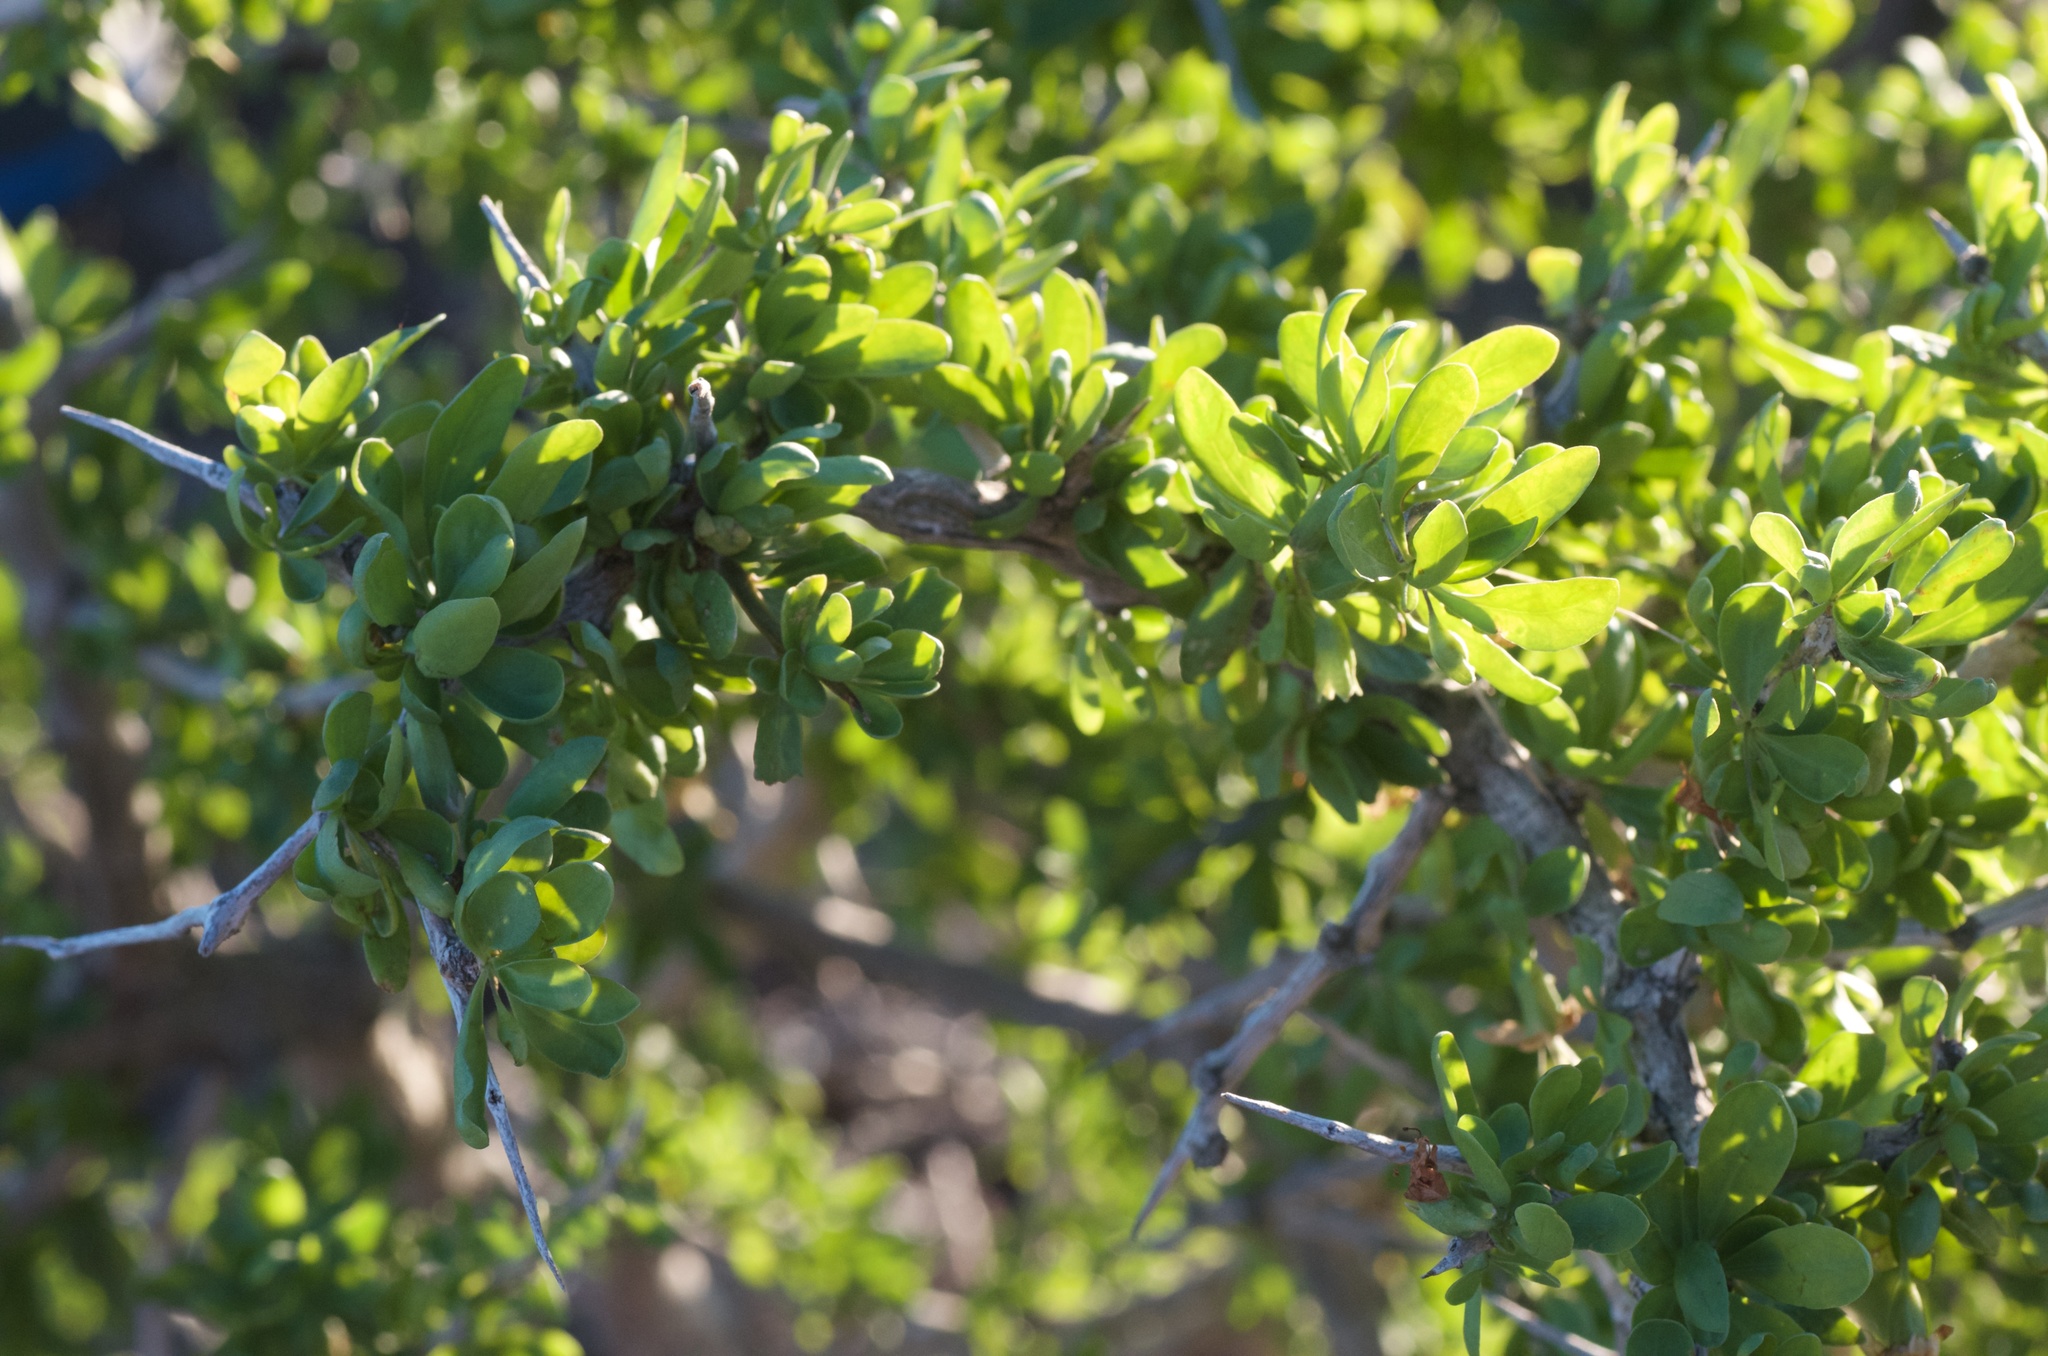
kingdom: Plantae
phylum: Tracheophyta
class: Magnoliopsida
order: Solanales
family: Solanaceae
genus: Lycium
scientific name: Lycium ferocissimum
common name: African boxthorn
